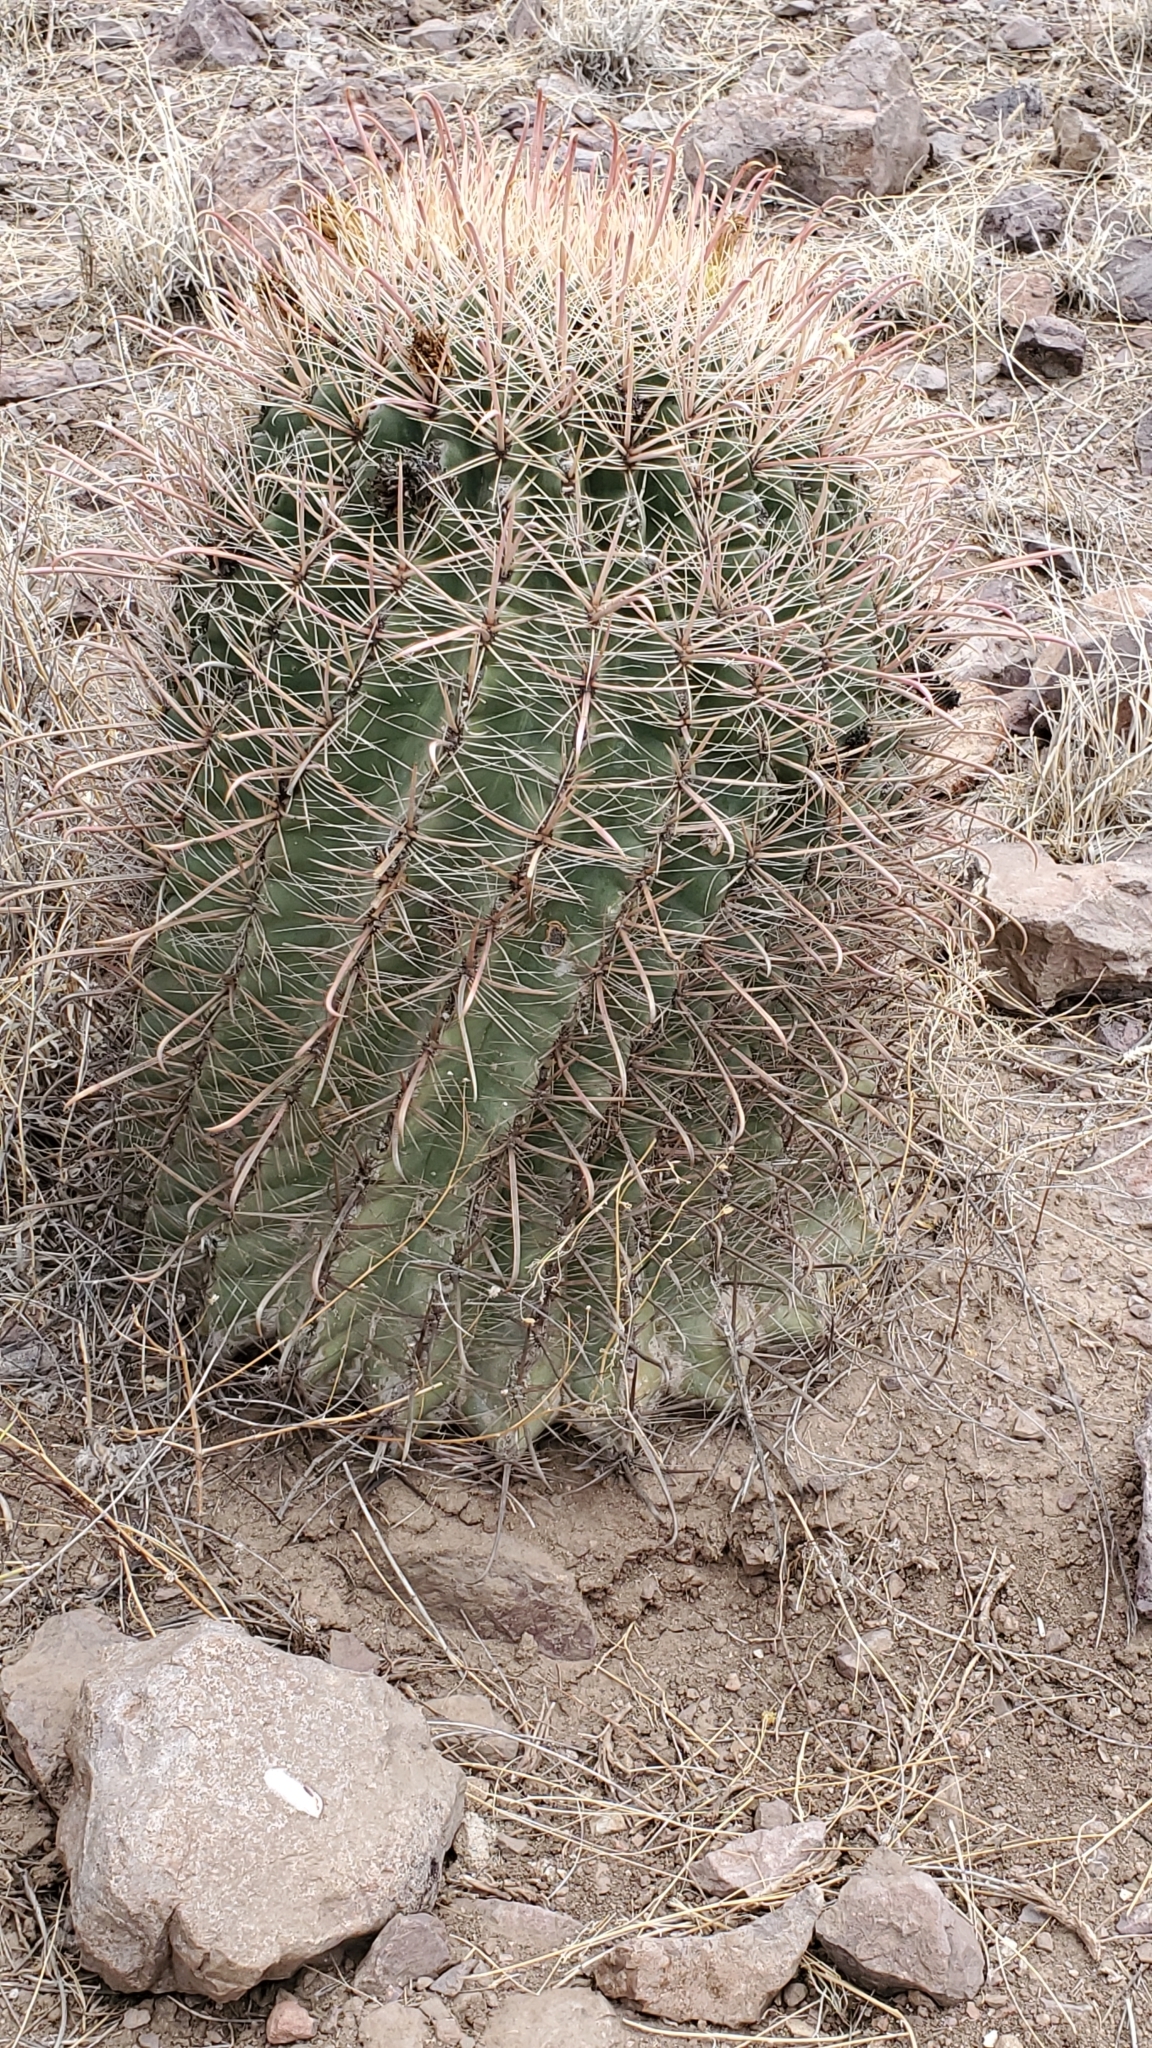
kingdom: Plantae
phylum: Tracheophyta
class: Magnoliopsida
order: Caryophyllales
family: Cactaceae
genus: Ferocactus
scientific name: Ferocactus wislizeni
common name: Candy barrel cactus
